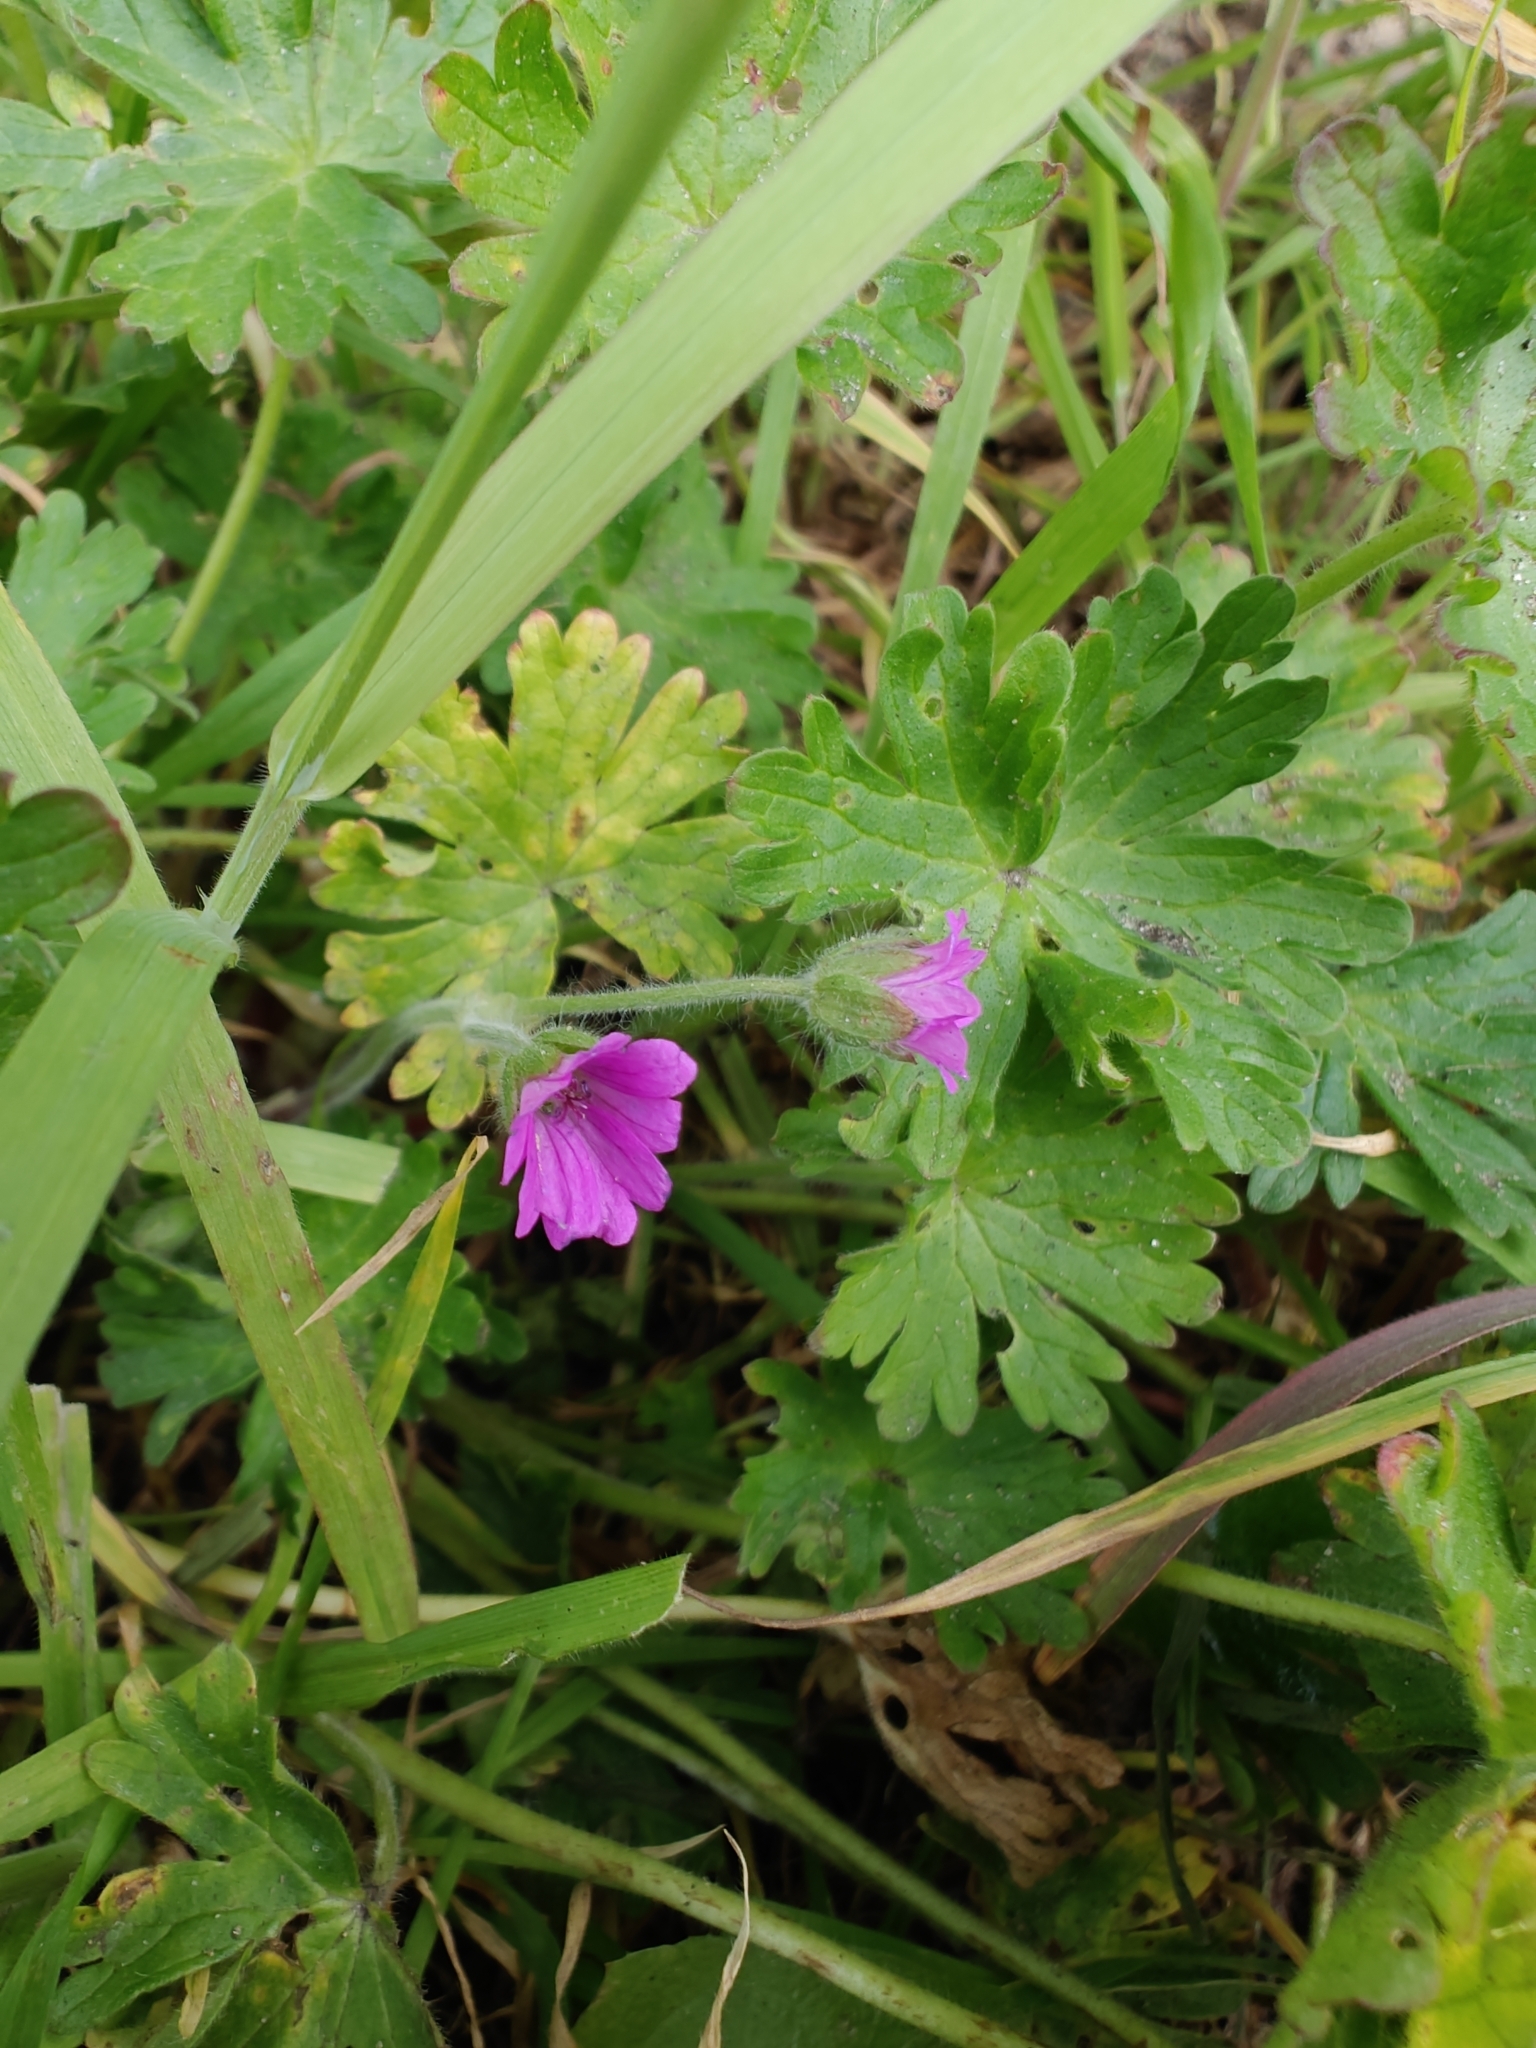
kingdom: Plantae
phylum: Tracheophyta
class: Magnoliopsida
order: Geraniales
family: Geraniaceae
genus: Geranium
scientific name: Geranium molle
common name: Dove's-foot crane's-bill
